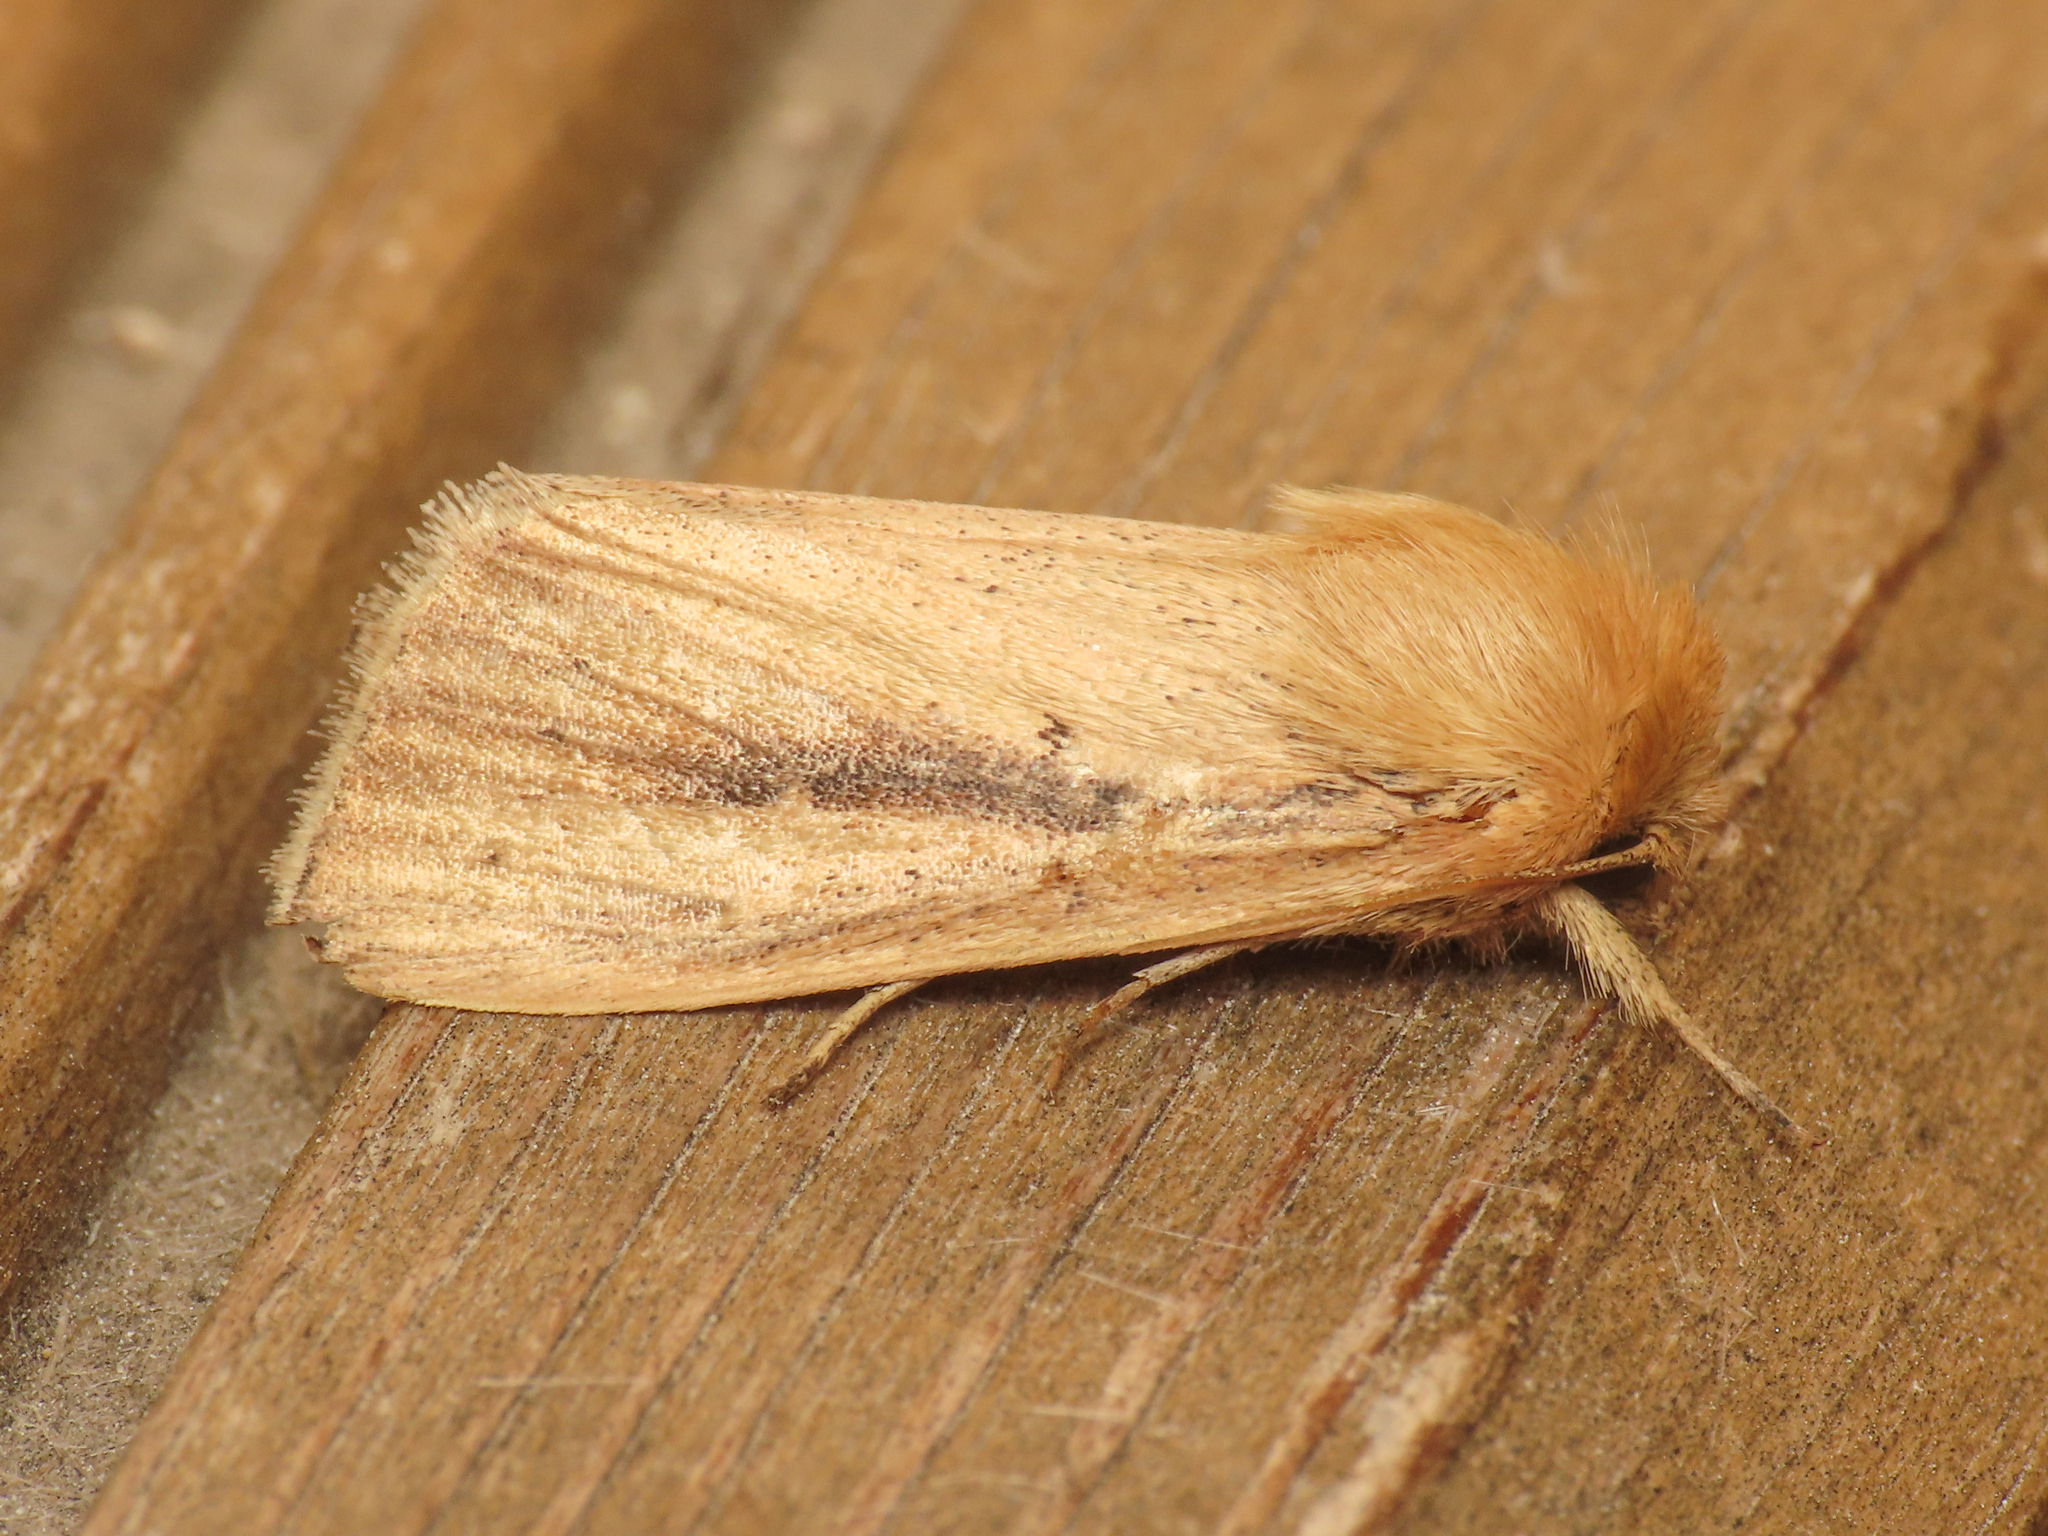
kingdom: Animalia
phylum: Arthropoda
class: Insecta
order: Lepidoptera
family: Noctuidae
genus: Sesamia
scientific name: Sesamia nonagrioides
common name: Pink stem borer
